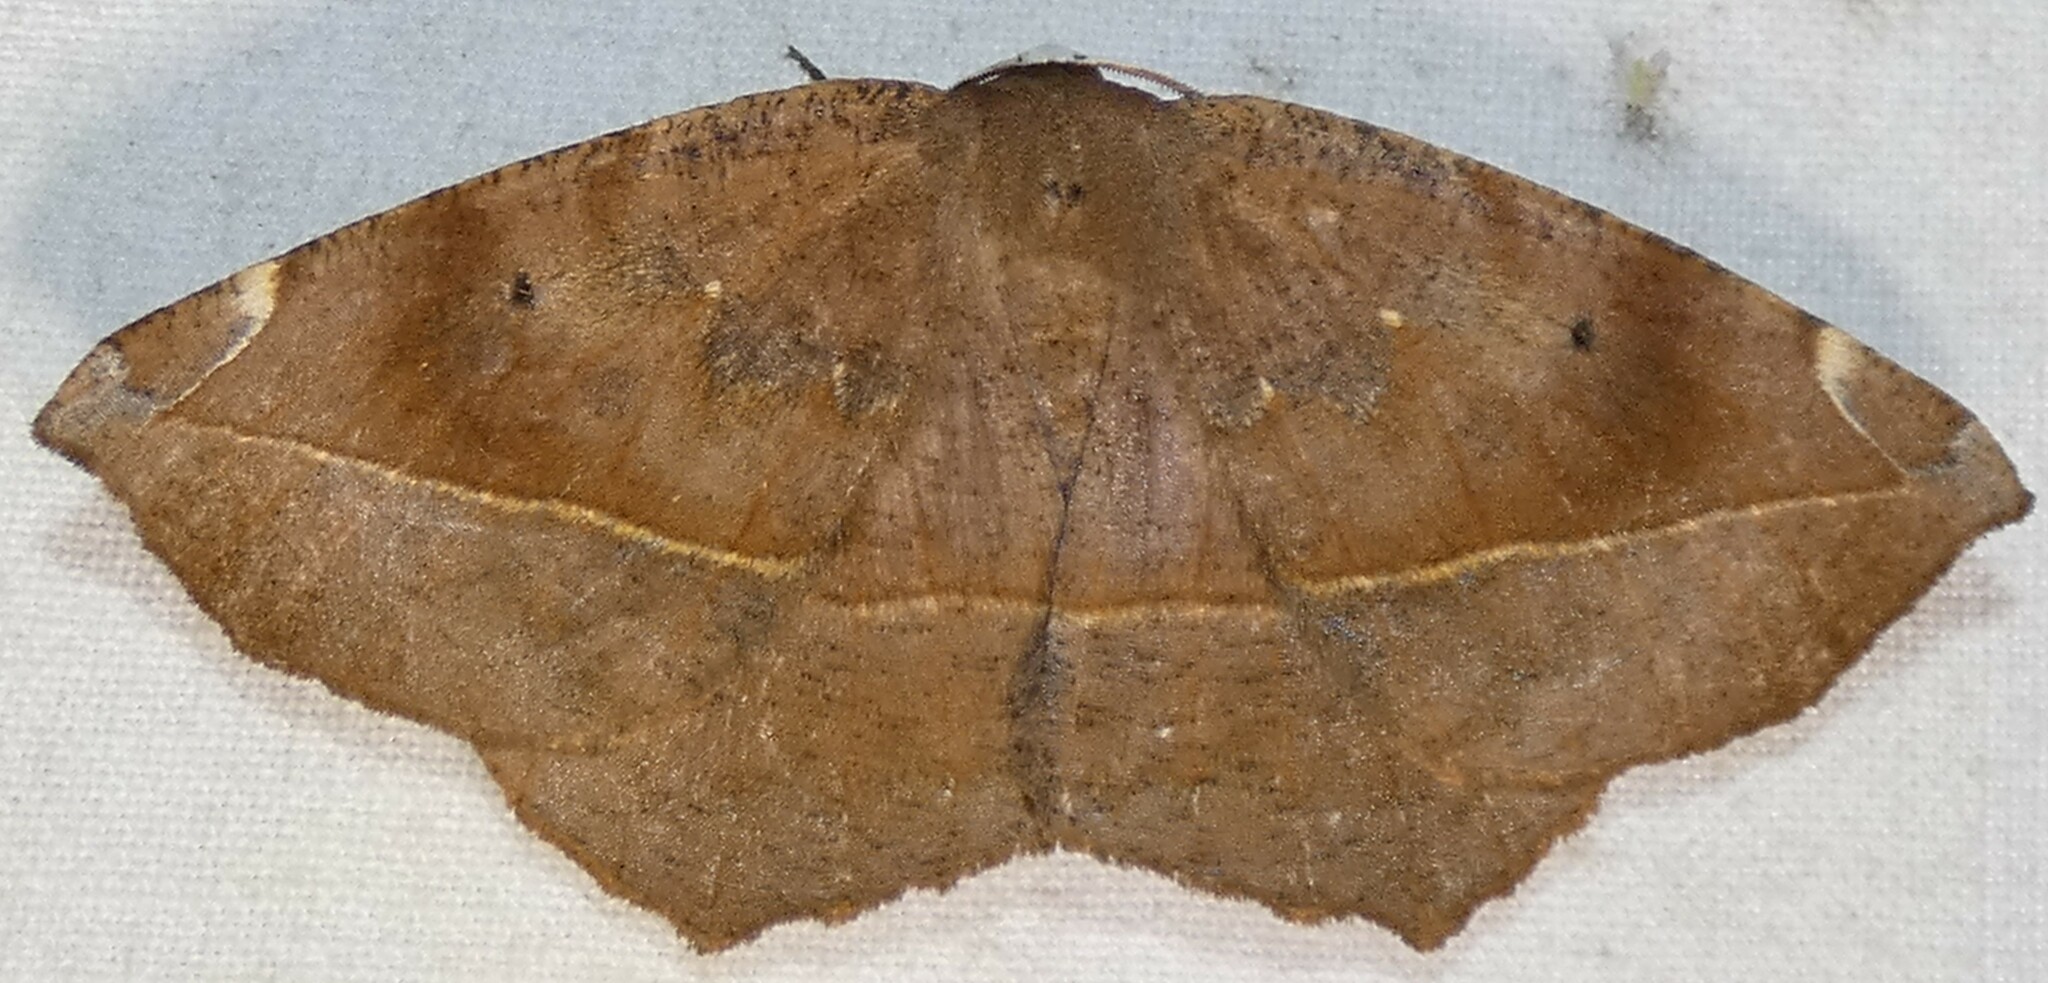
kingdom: Animalia
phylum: Arthropoda
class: Insecta
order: Lepidoptera
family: Geometridae
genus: Eutrapela
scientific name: Eutrapela clemataria
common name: Curved-toothed geometer
